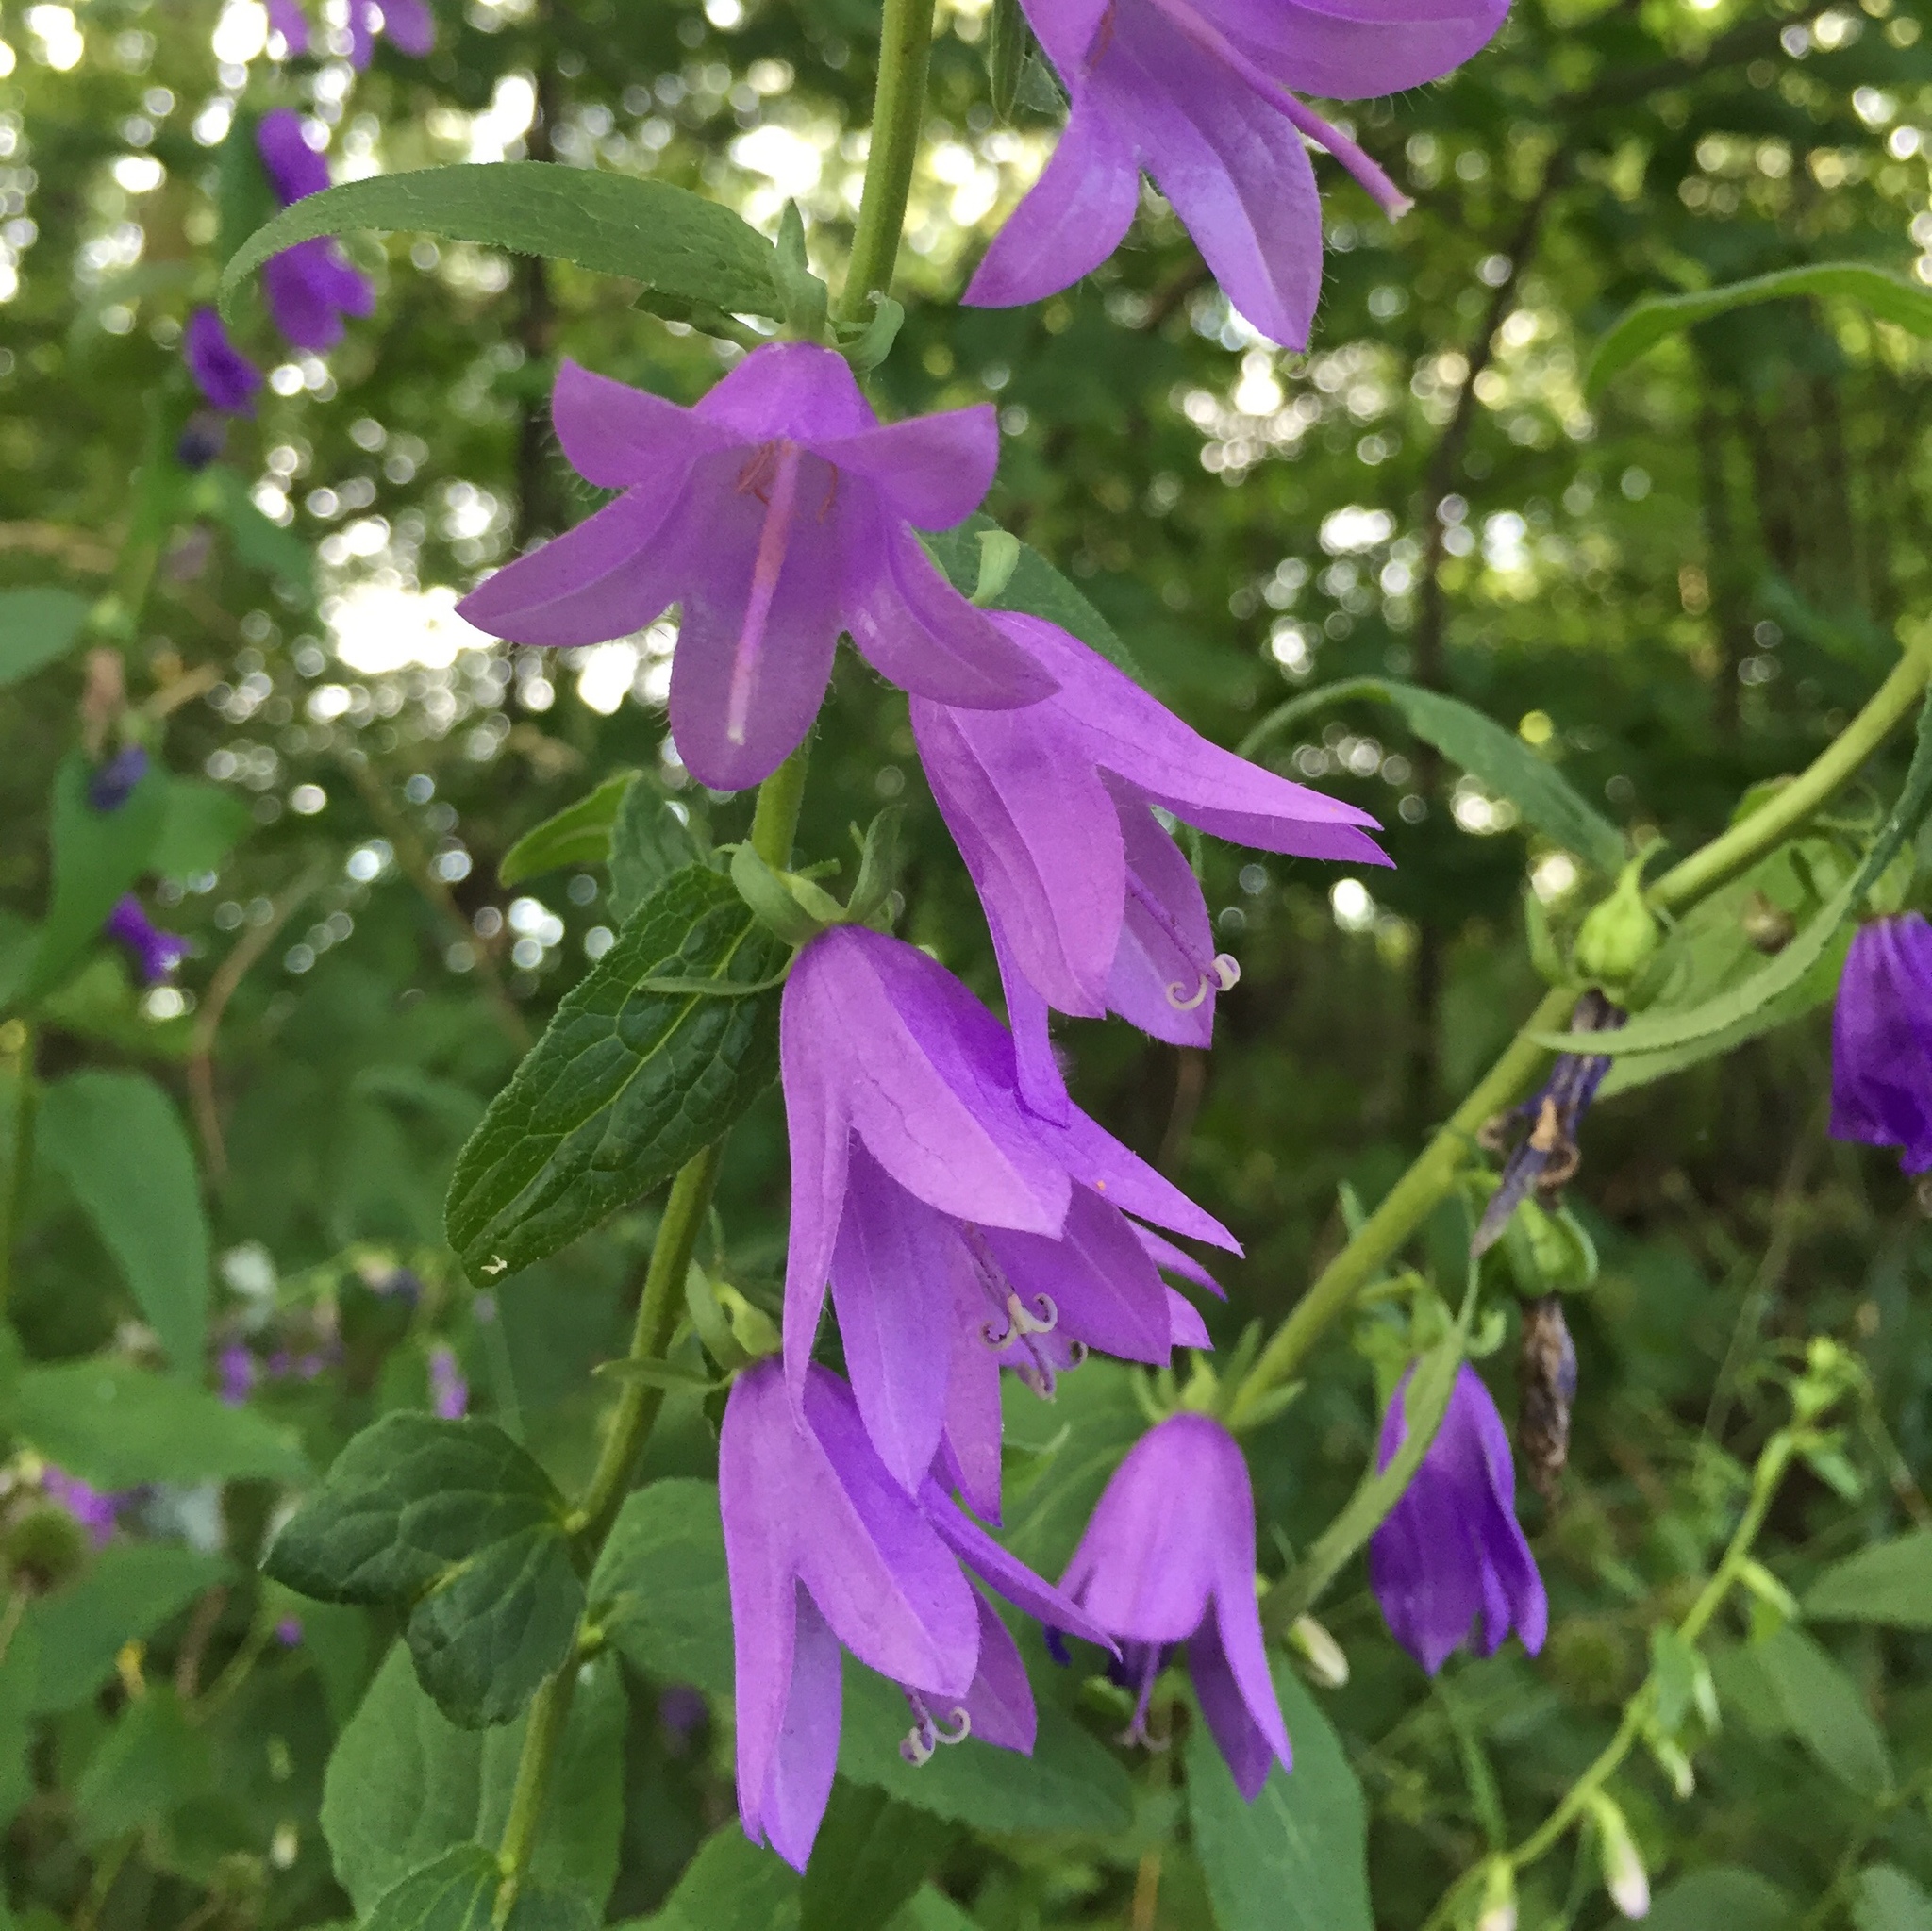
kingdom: Plantae
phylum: Tracheophyta
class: Magnoliopsida
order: Asterales
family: Campanulaceae
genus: Campanula
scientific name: Campanula rapunculoides
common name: Creeping bellflower
